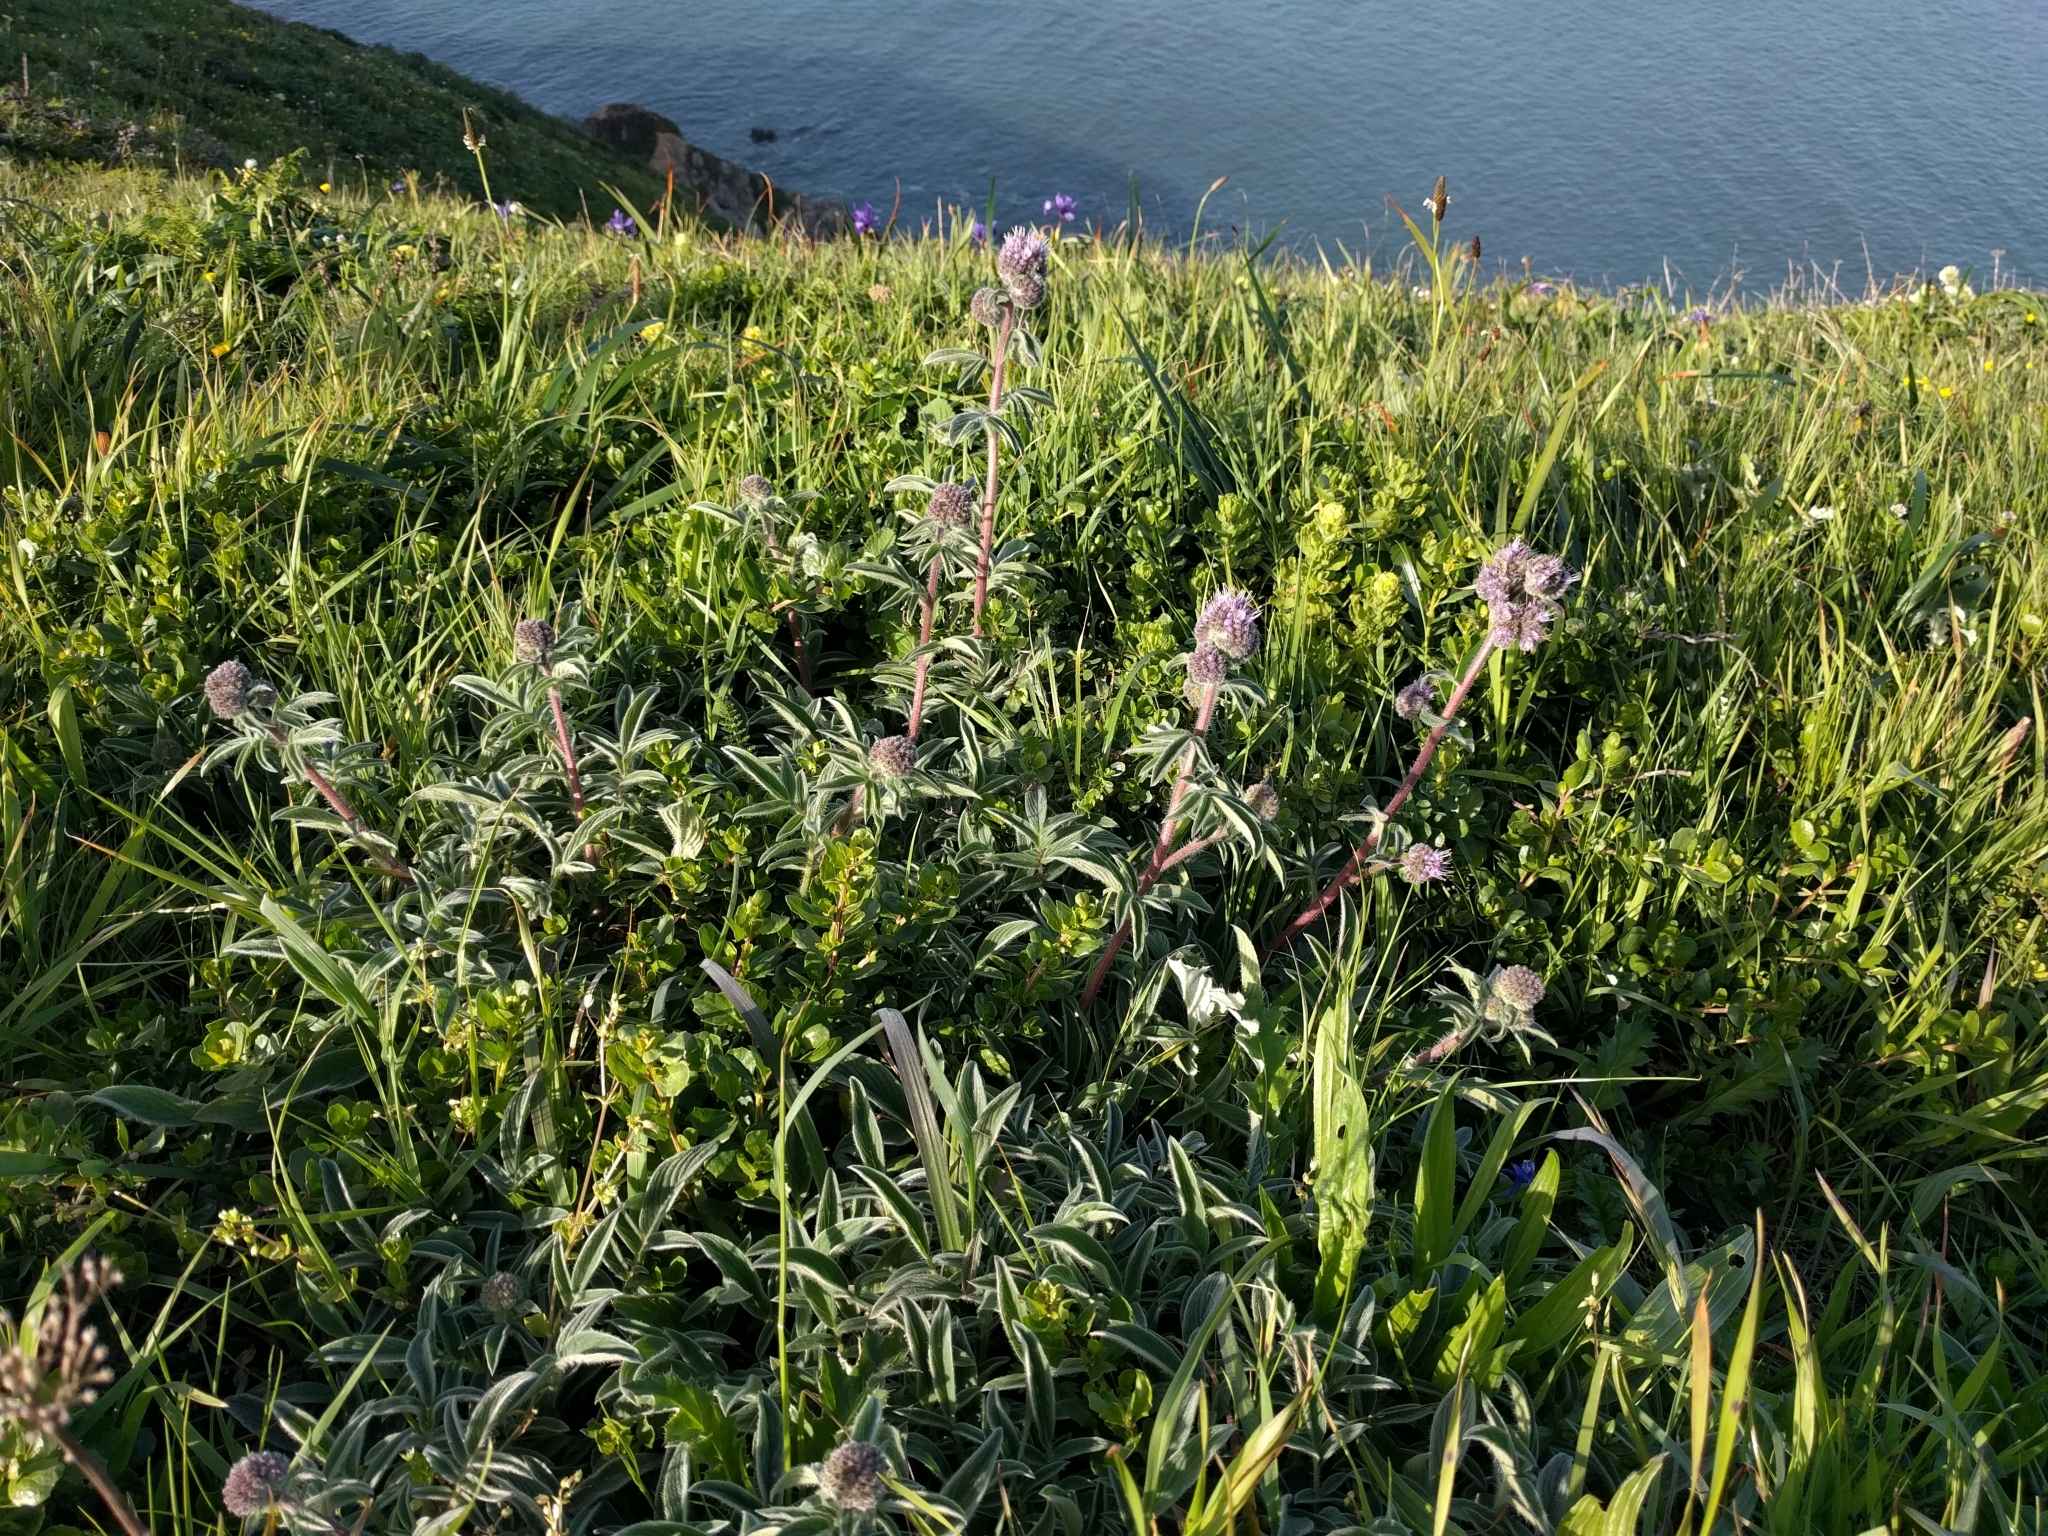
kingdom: Plantae
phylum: Tracheophyta
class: Magnoliopsida
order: Boraginales
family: Hydrophyllaceae
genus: Phacelia
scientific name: Phacelia californica
